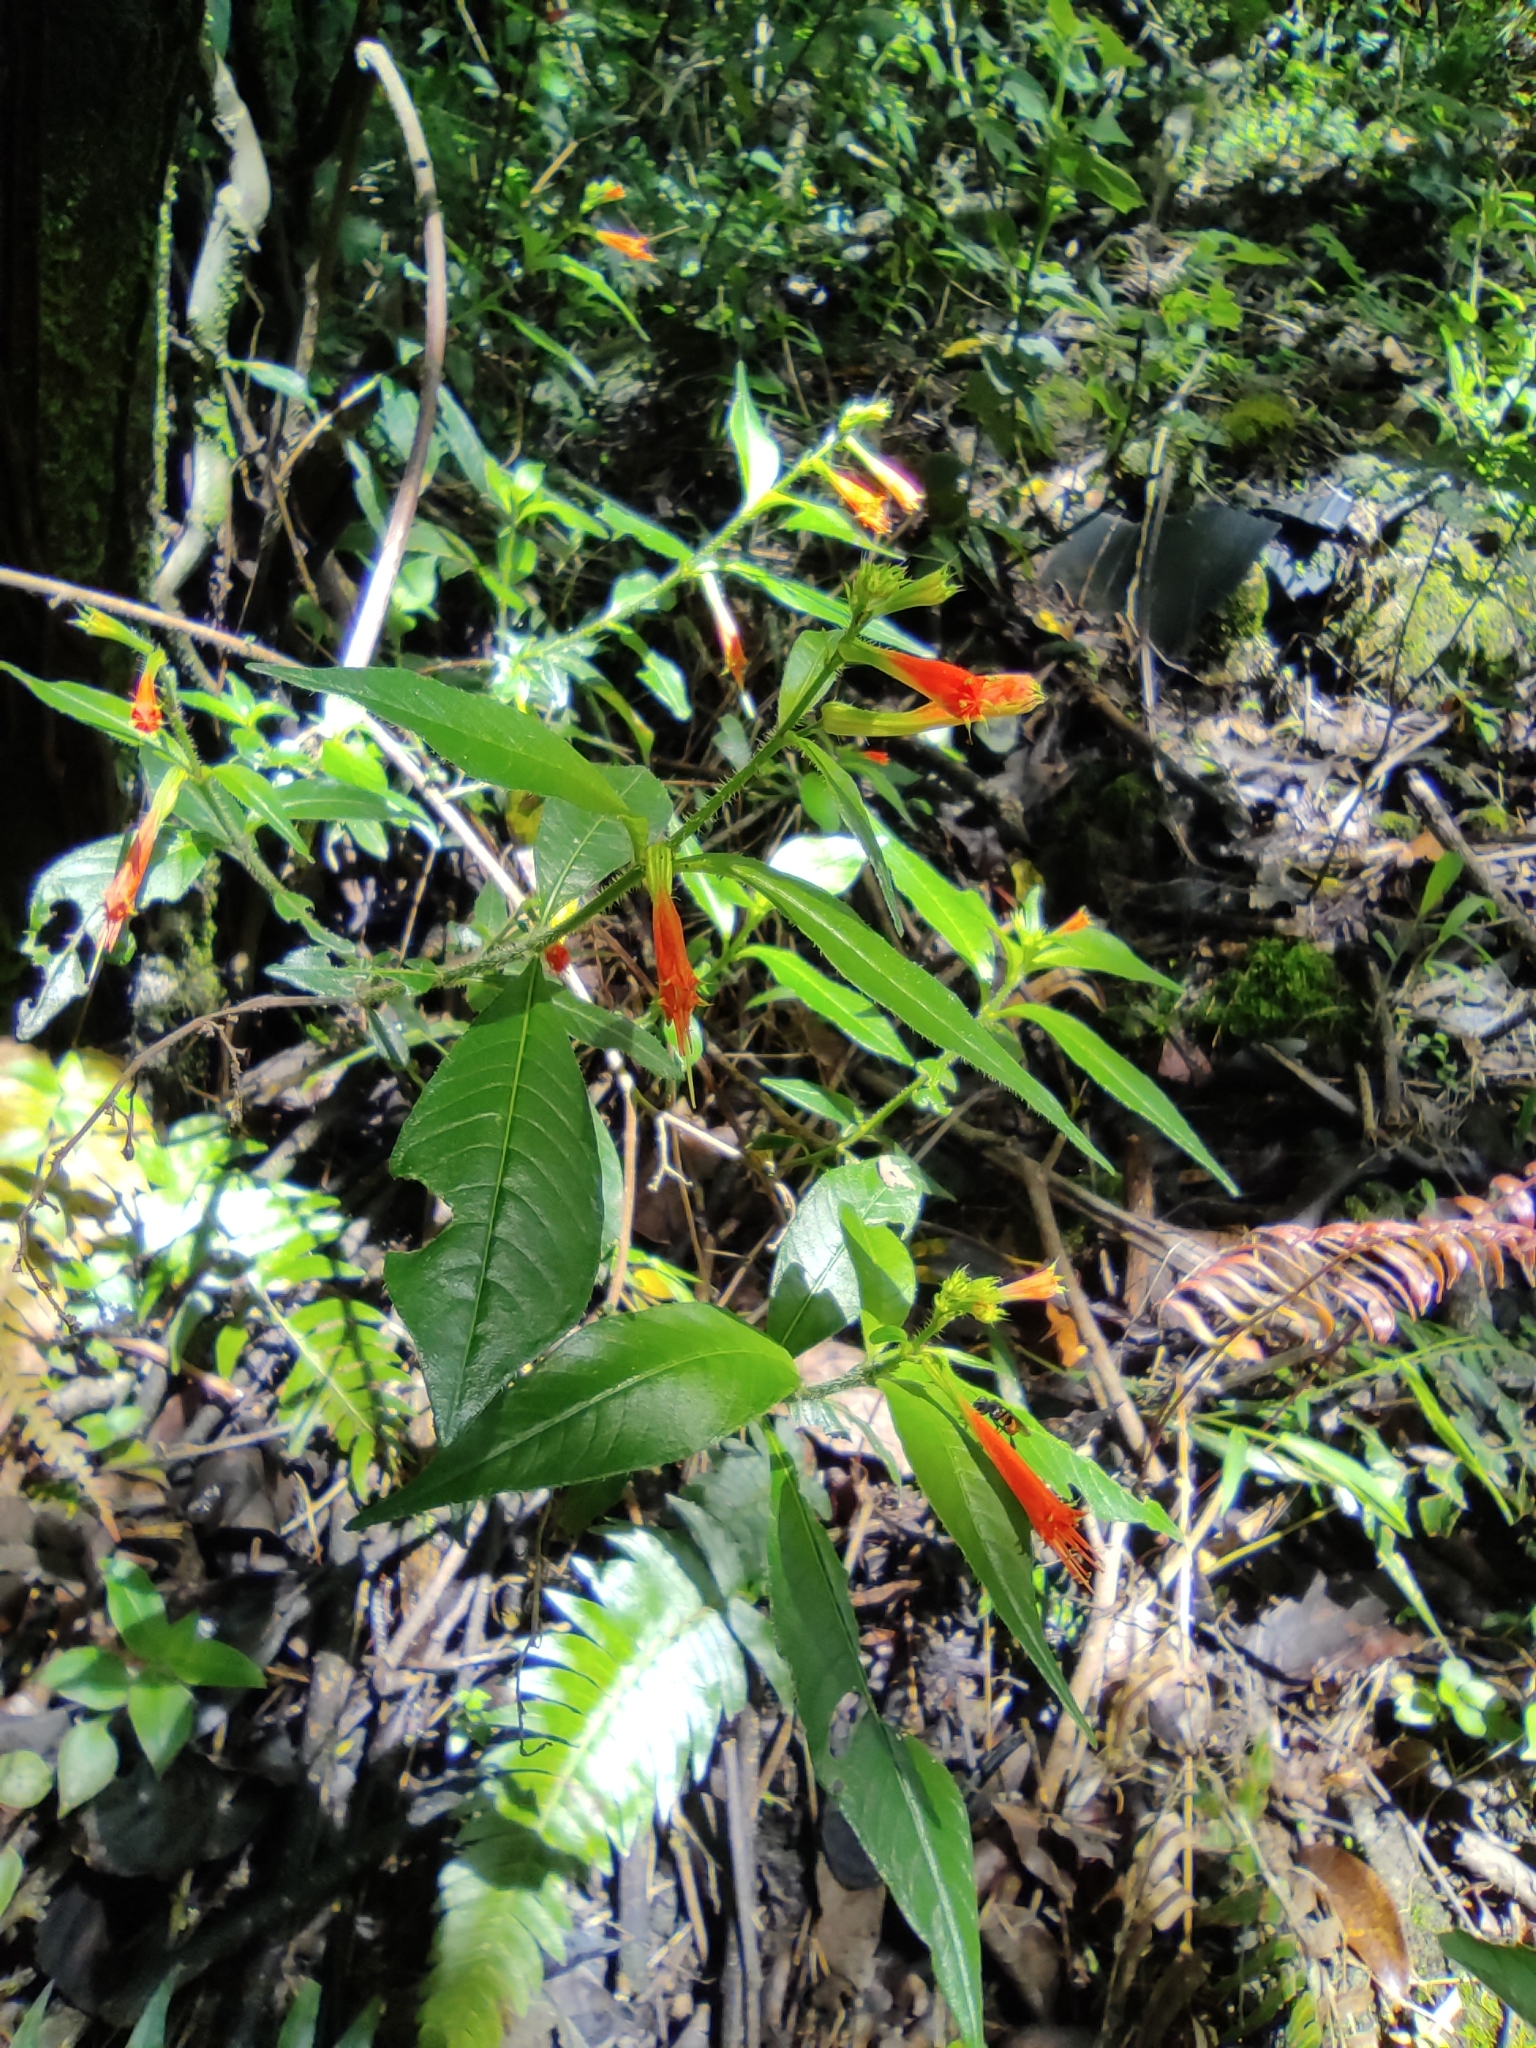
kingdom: Plantae
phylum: Tracheophyta
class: Magnoliopsida
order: Myrtales
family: Lythraceae
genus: Cuphea
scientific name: Cuphea appendiculata
